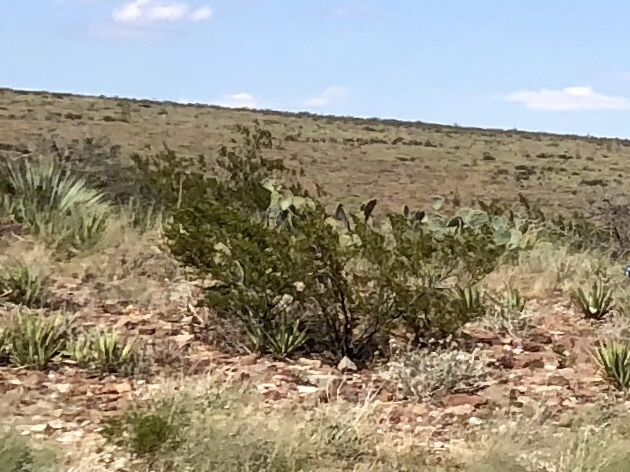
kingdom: Plantae
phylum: Tracheophyta
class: Magnoliopsida
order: Zygophyllales
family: Zygophyllaceae
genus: Larrea
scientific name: Larrea tridentata
